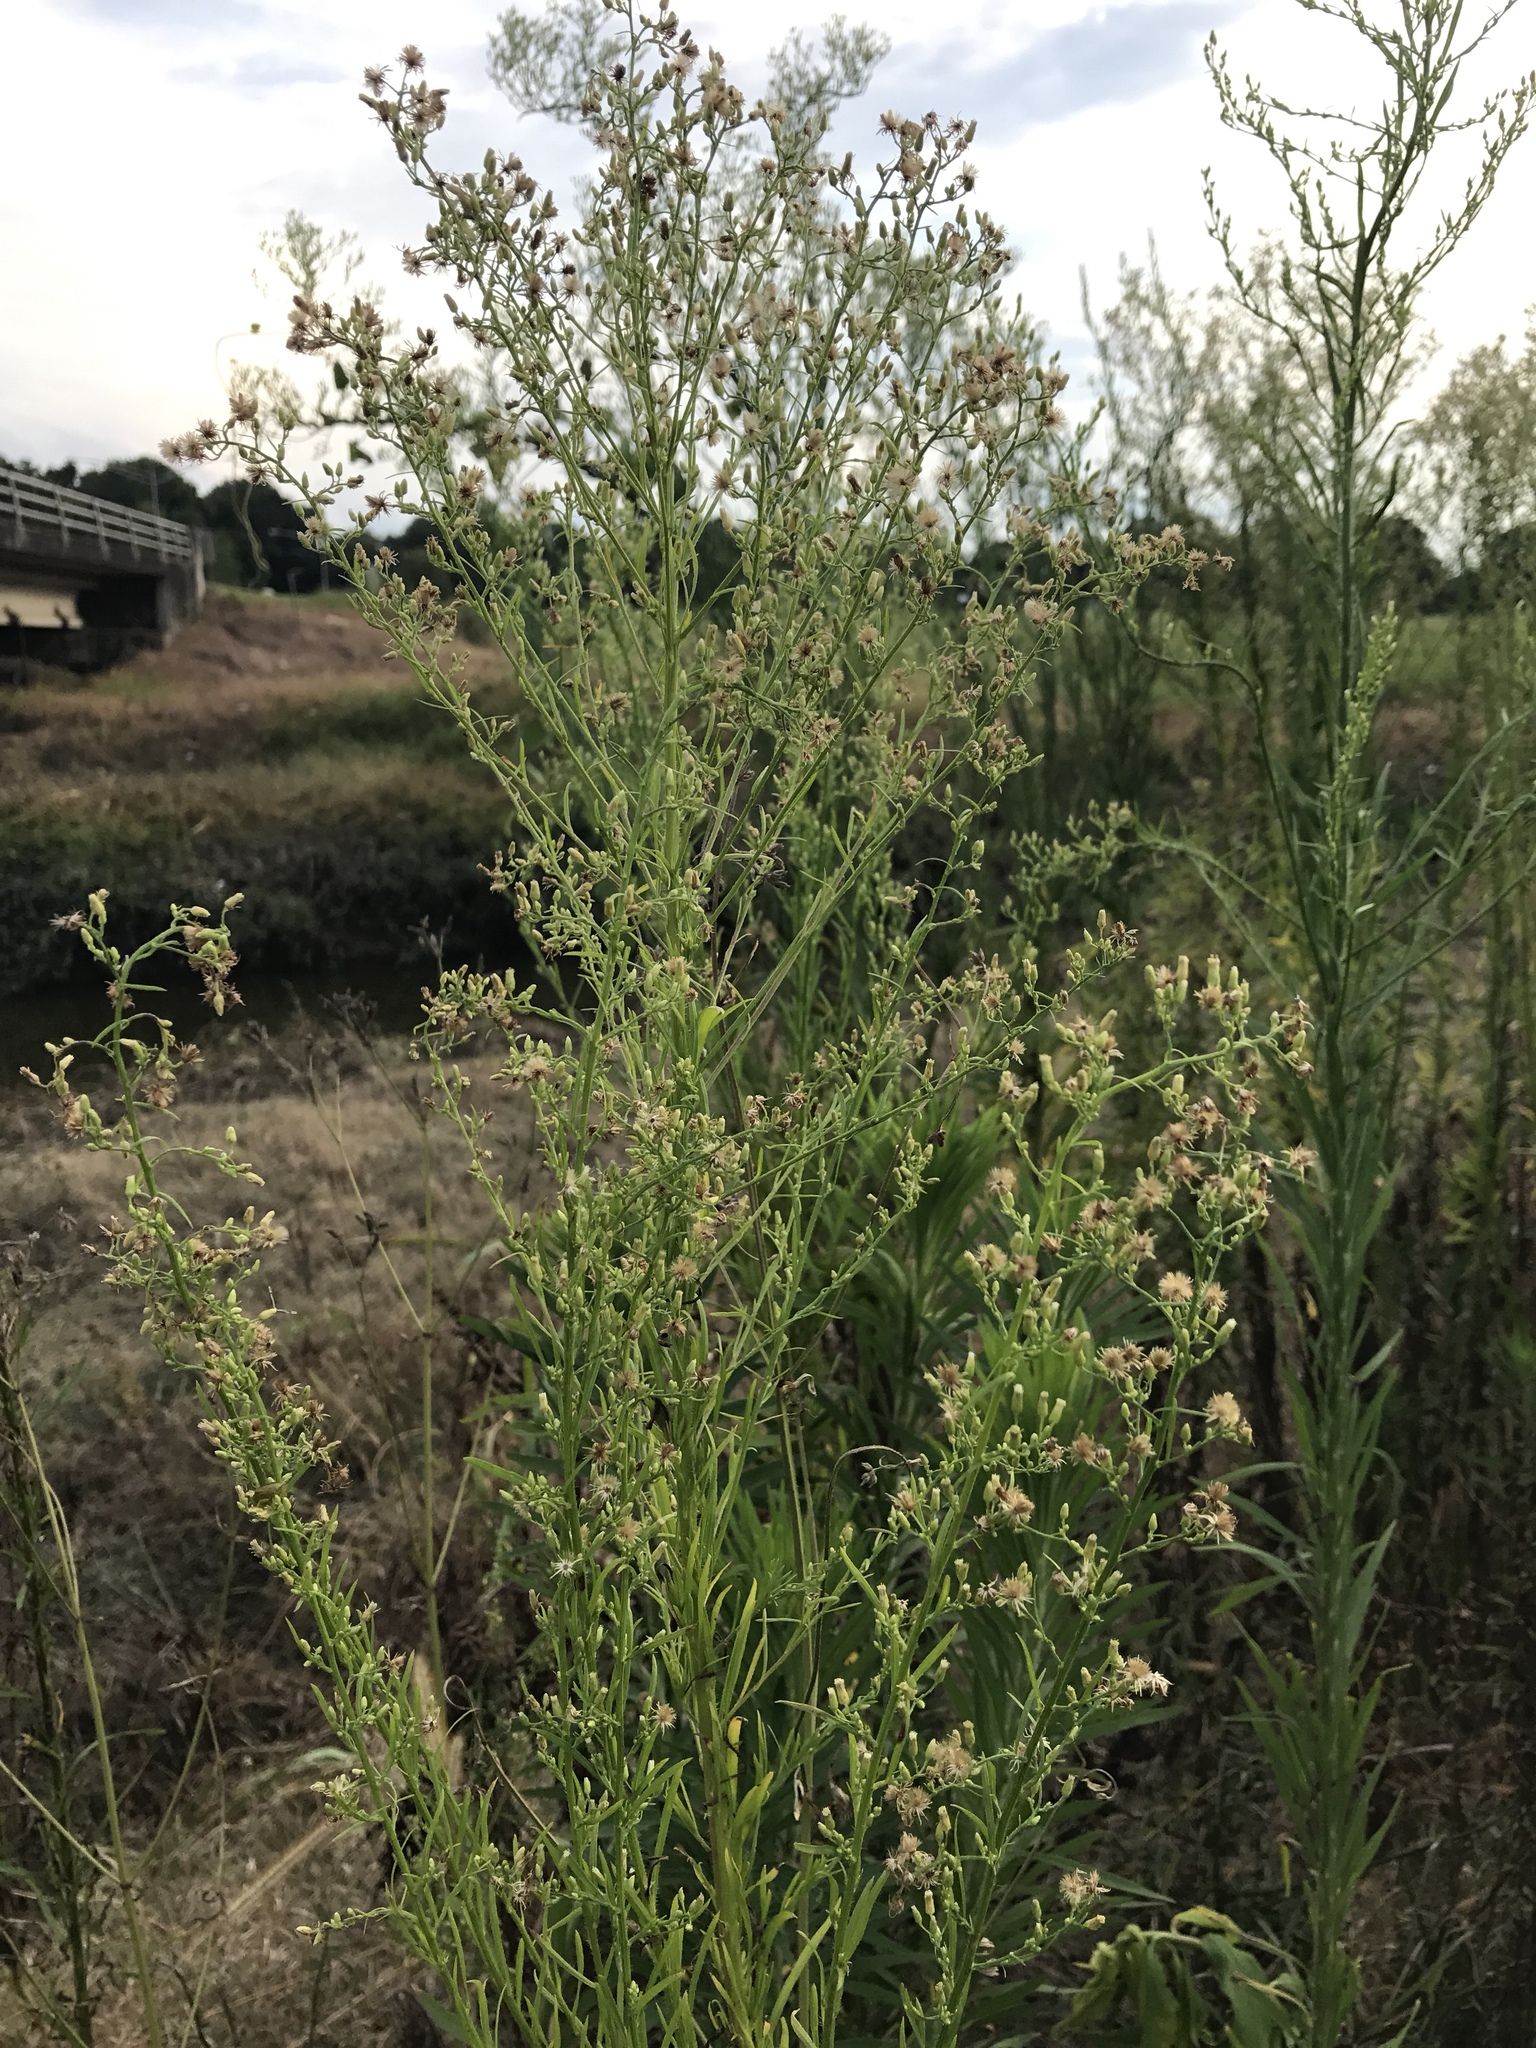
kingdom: Plantae
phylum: Tracheophyta
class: Magnoliopsida
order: Asterales
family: Asteraceae
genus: Erigeron
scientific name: Erigeron canadensis
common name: Canadian fleabane
